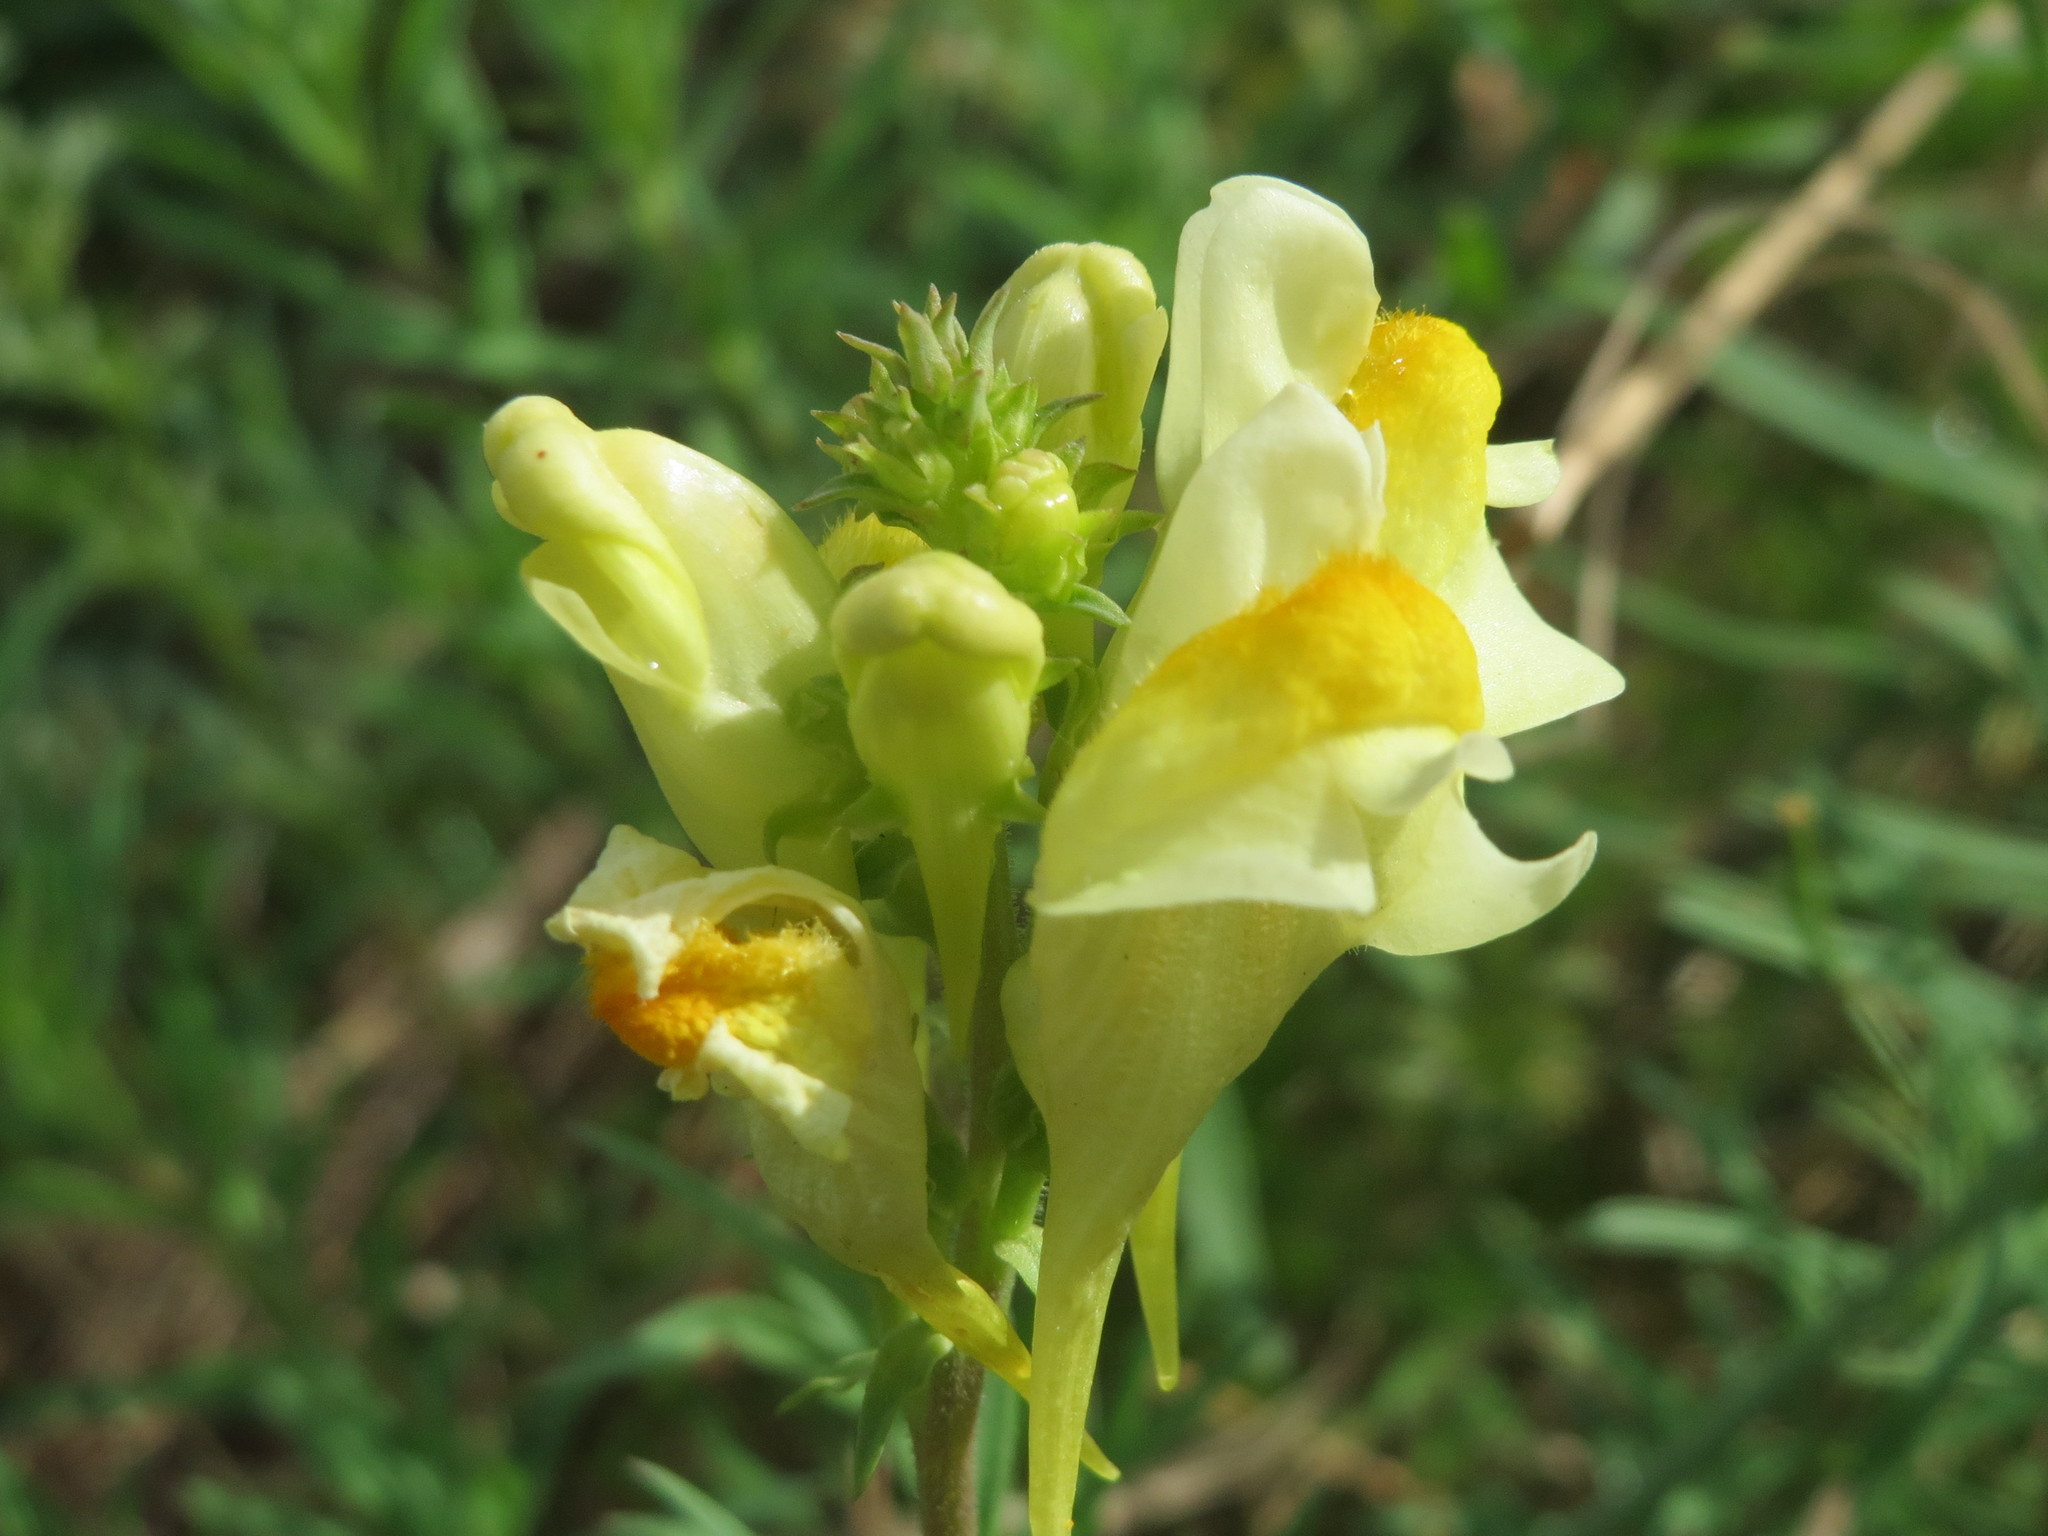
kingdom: Plantae
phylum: Tracheophyta
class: Magnoliopsida
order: Lamiales
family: Plantaginaceae
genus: Linaria
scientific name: Linaria vulgaris
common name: Butter and eggs
